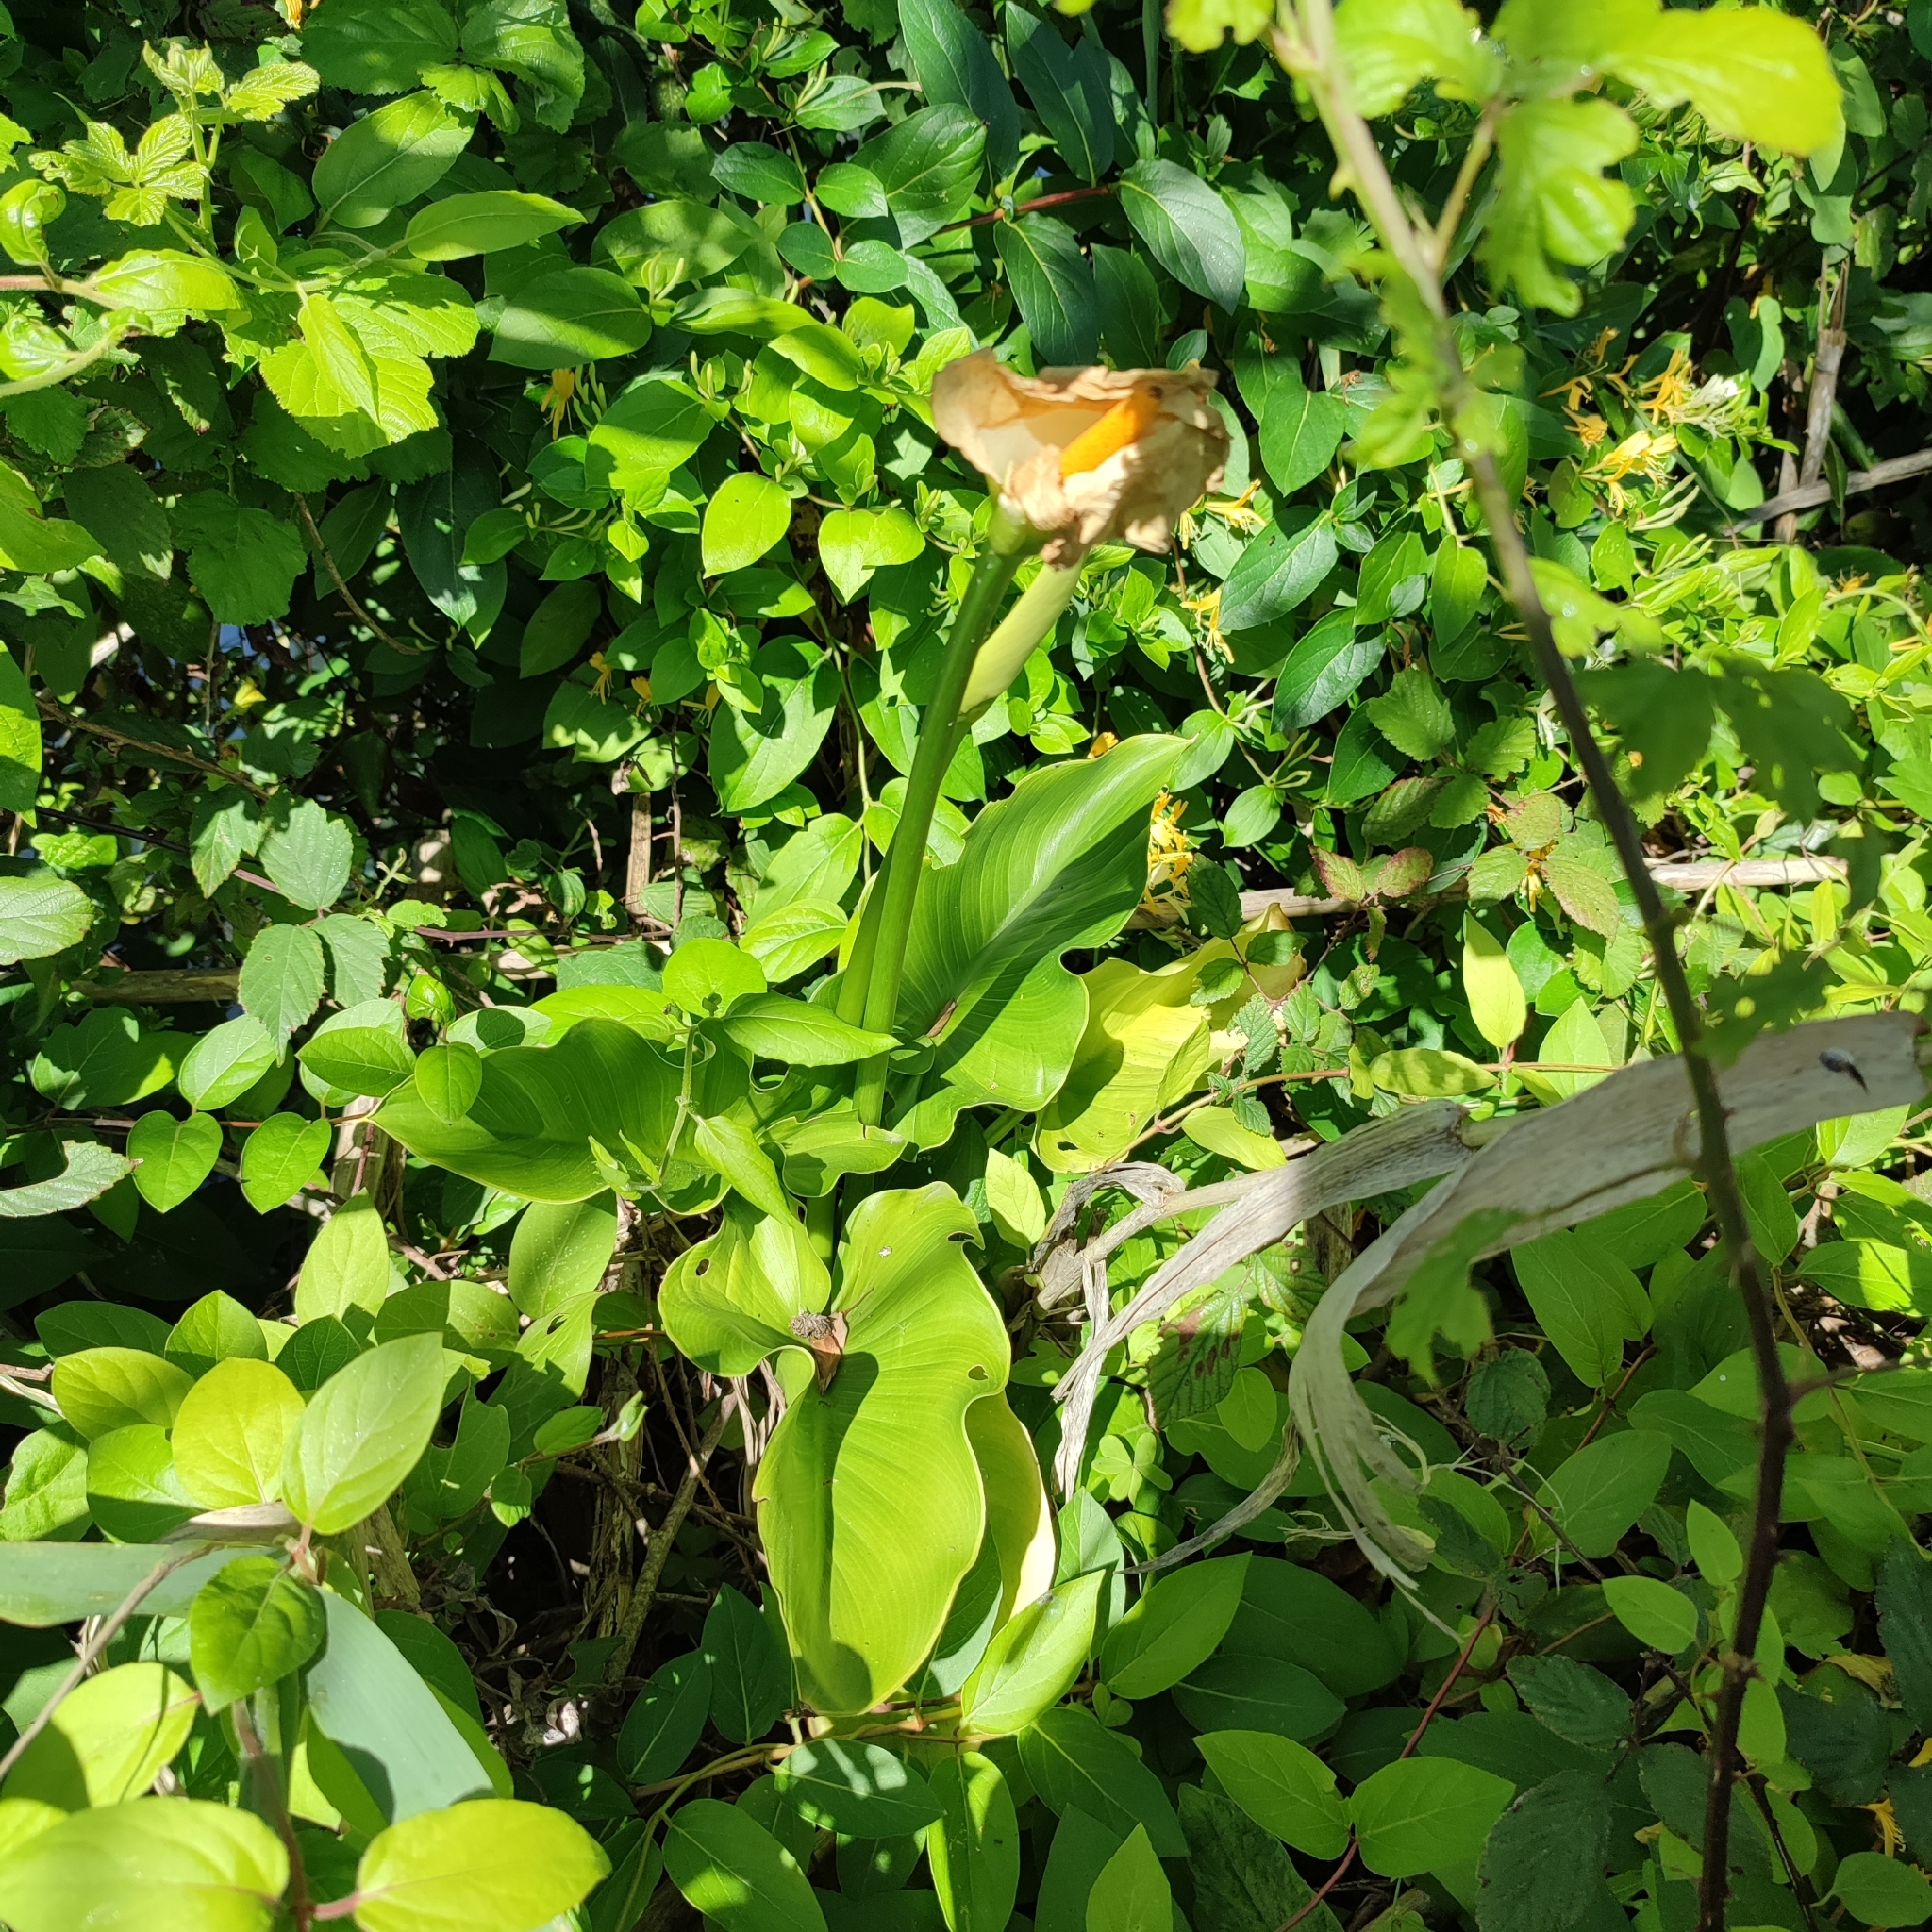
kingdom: Plantae
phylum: Tracheophyta
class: Liliopsida
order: Alismatales
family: Araceae
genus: Zantedeschia
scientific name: Zantedeschia aethiopica
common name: Altar-lily
